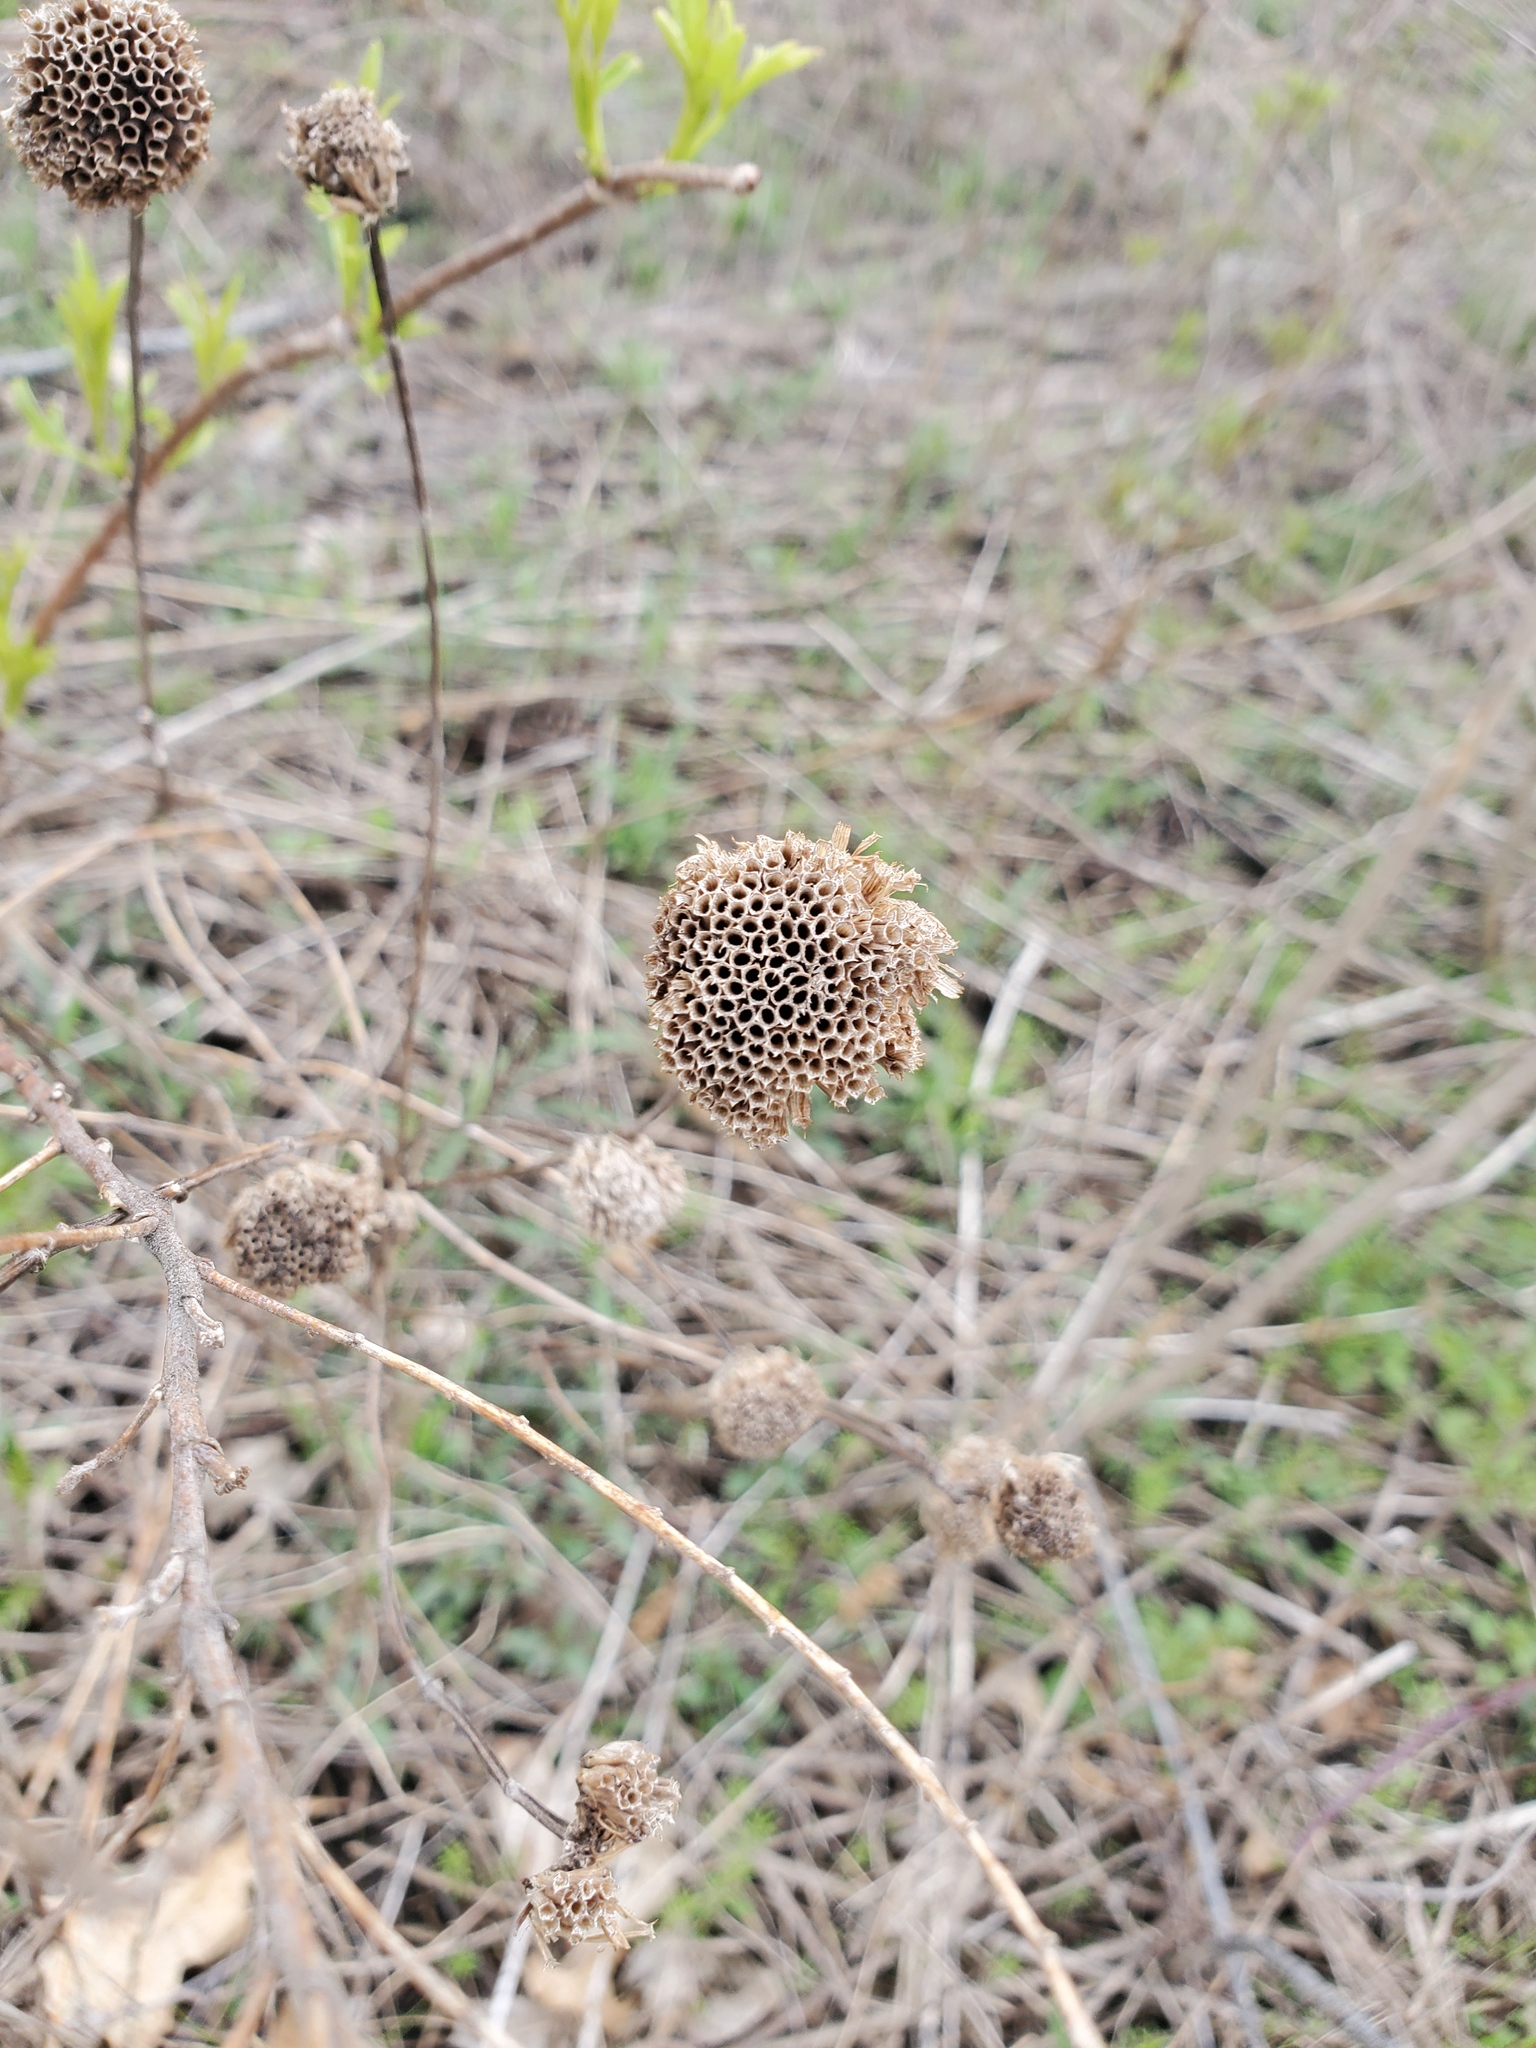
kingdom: Plantae
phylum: Tracheophyta
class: Magnoliopsida
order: Lamiales
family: Lamiaceae
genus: Monarda
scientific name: Monarda fistulosa
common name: Purple beebalm
